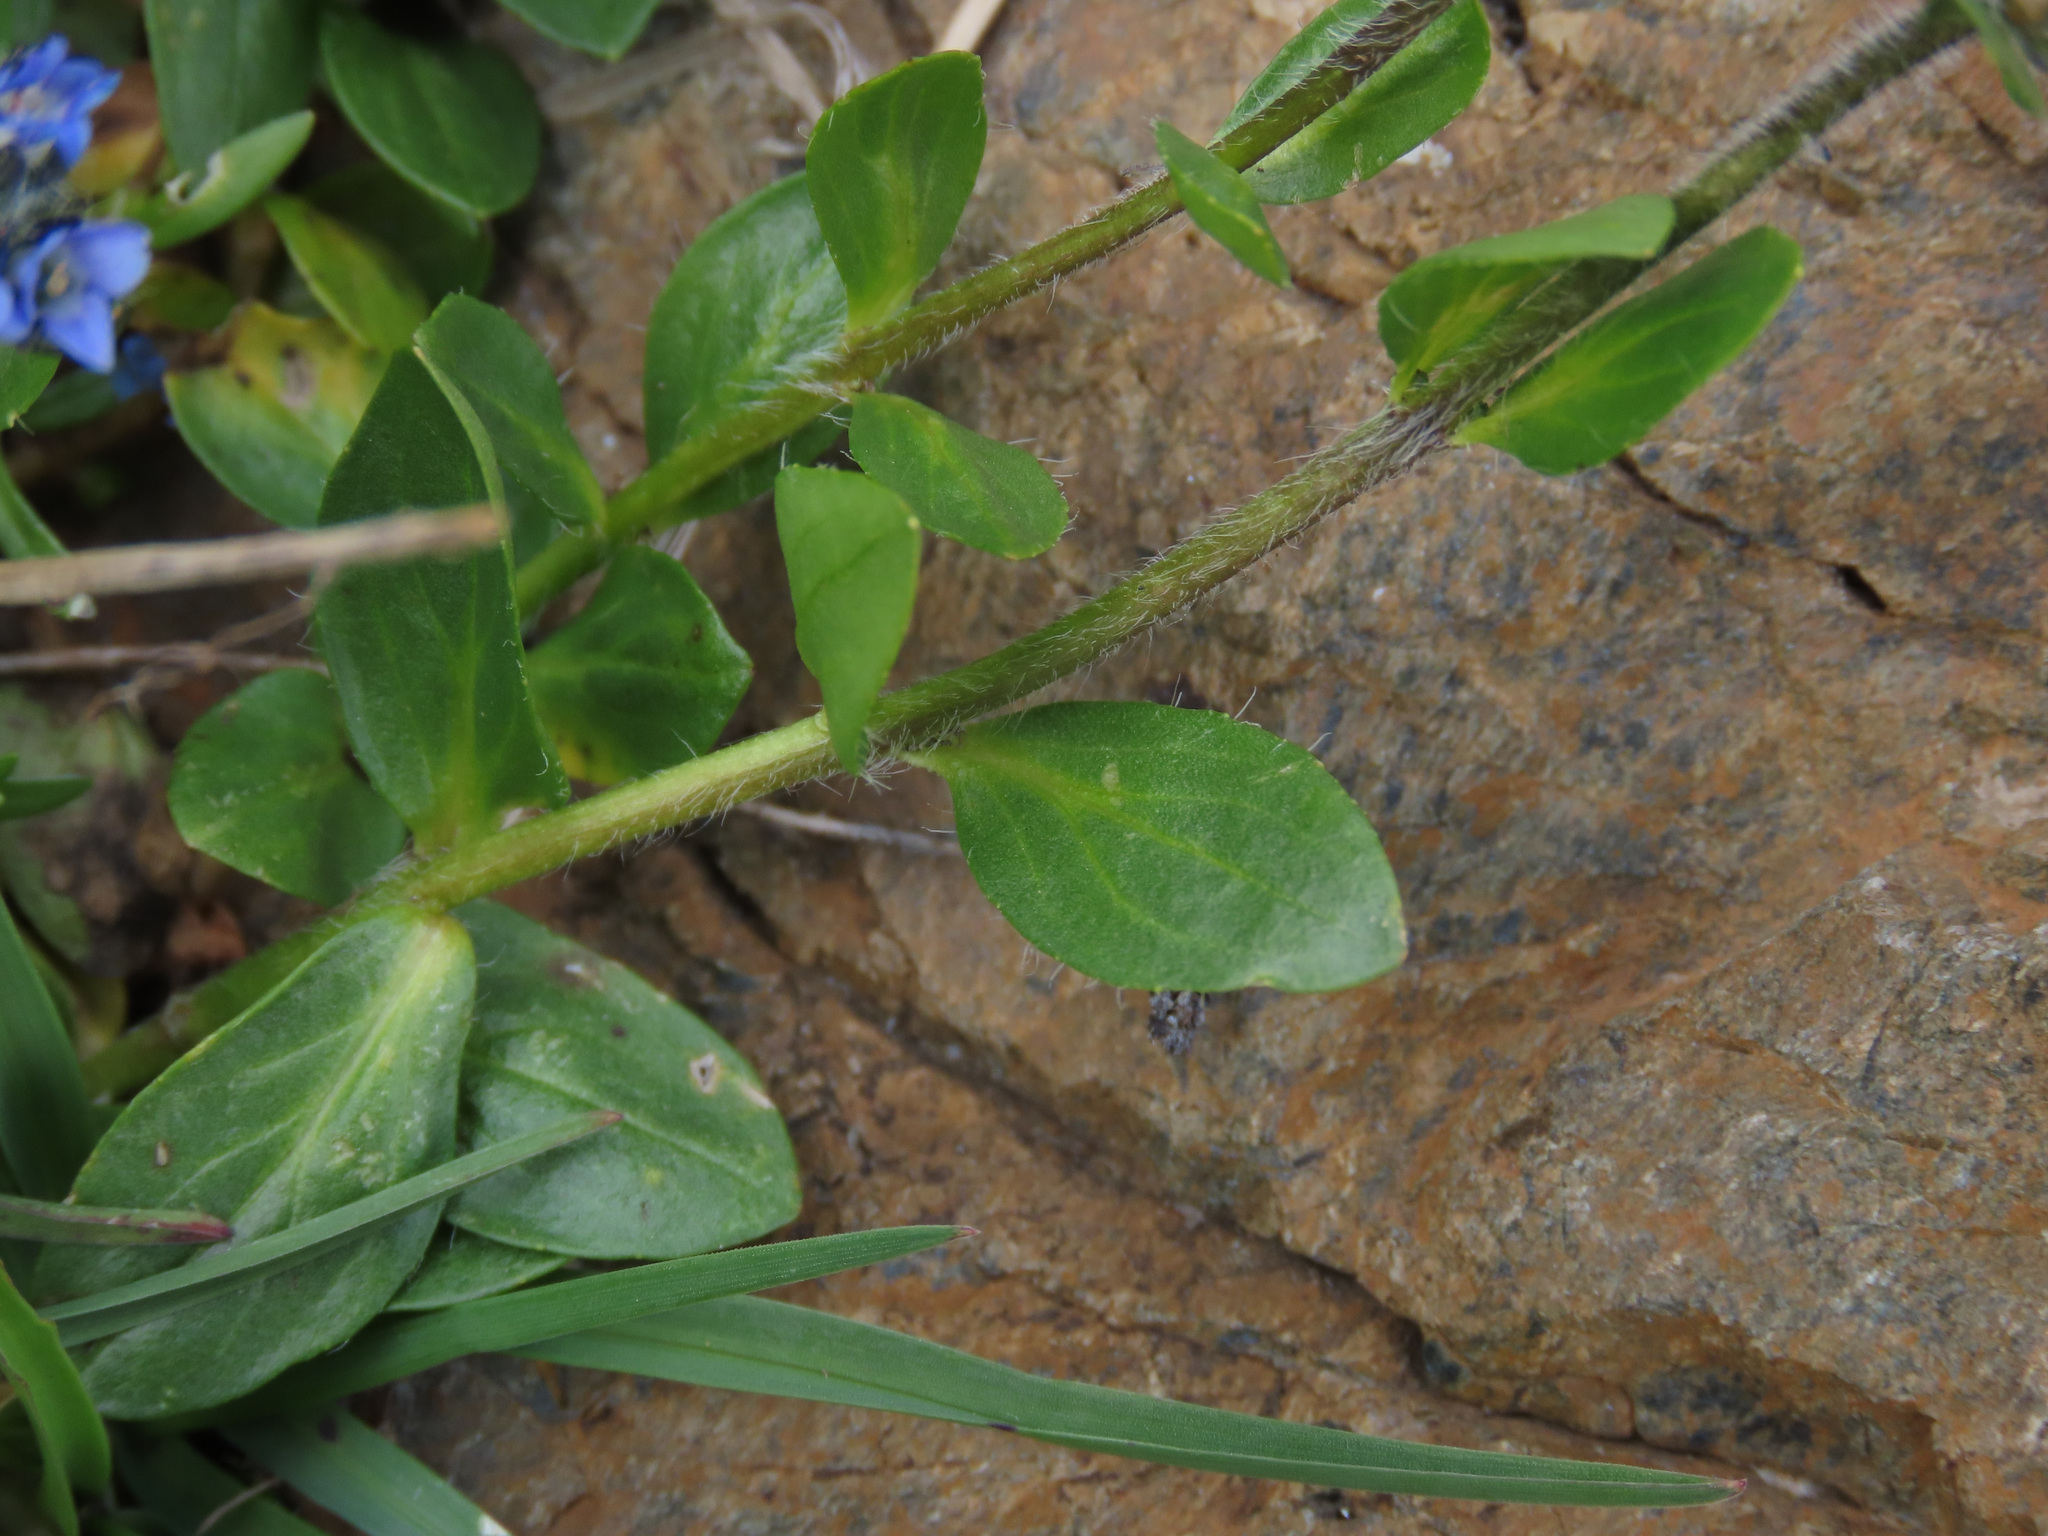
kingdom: Plantae
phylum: Tracheophyta
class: Magnoliopsida
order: Lamiales
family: Plantaginaceae
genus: Veronica
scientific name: Veronica alpina
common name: Alpine speedwell
